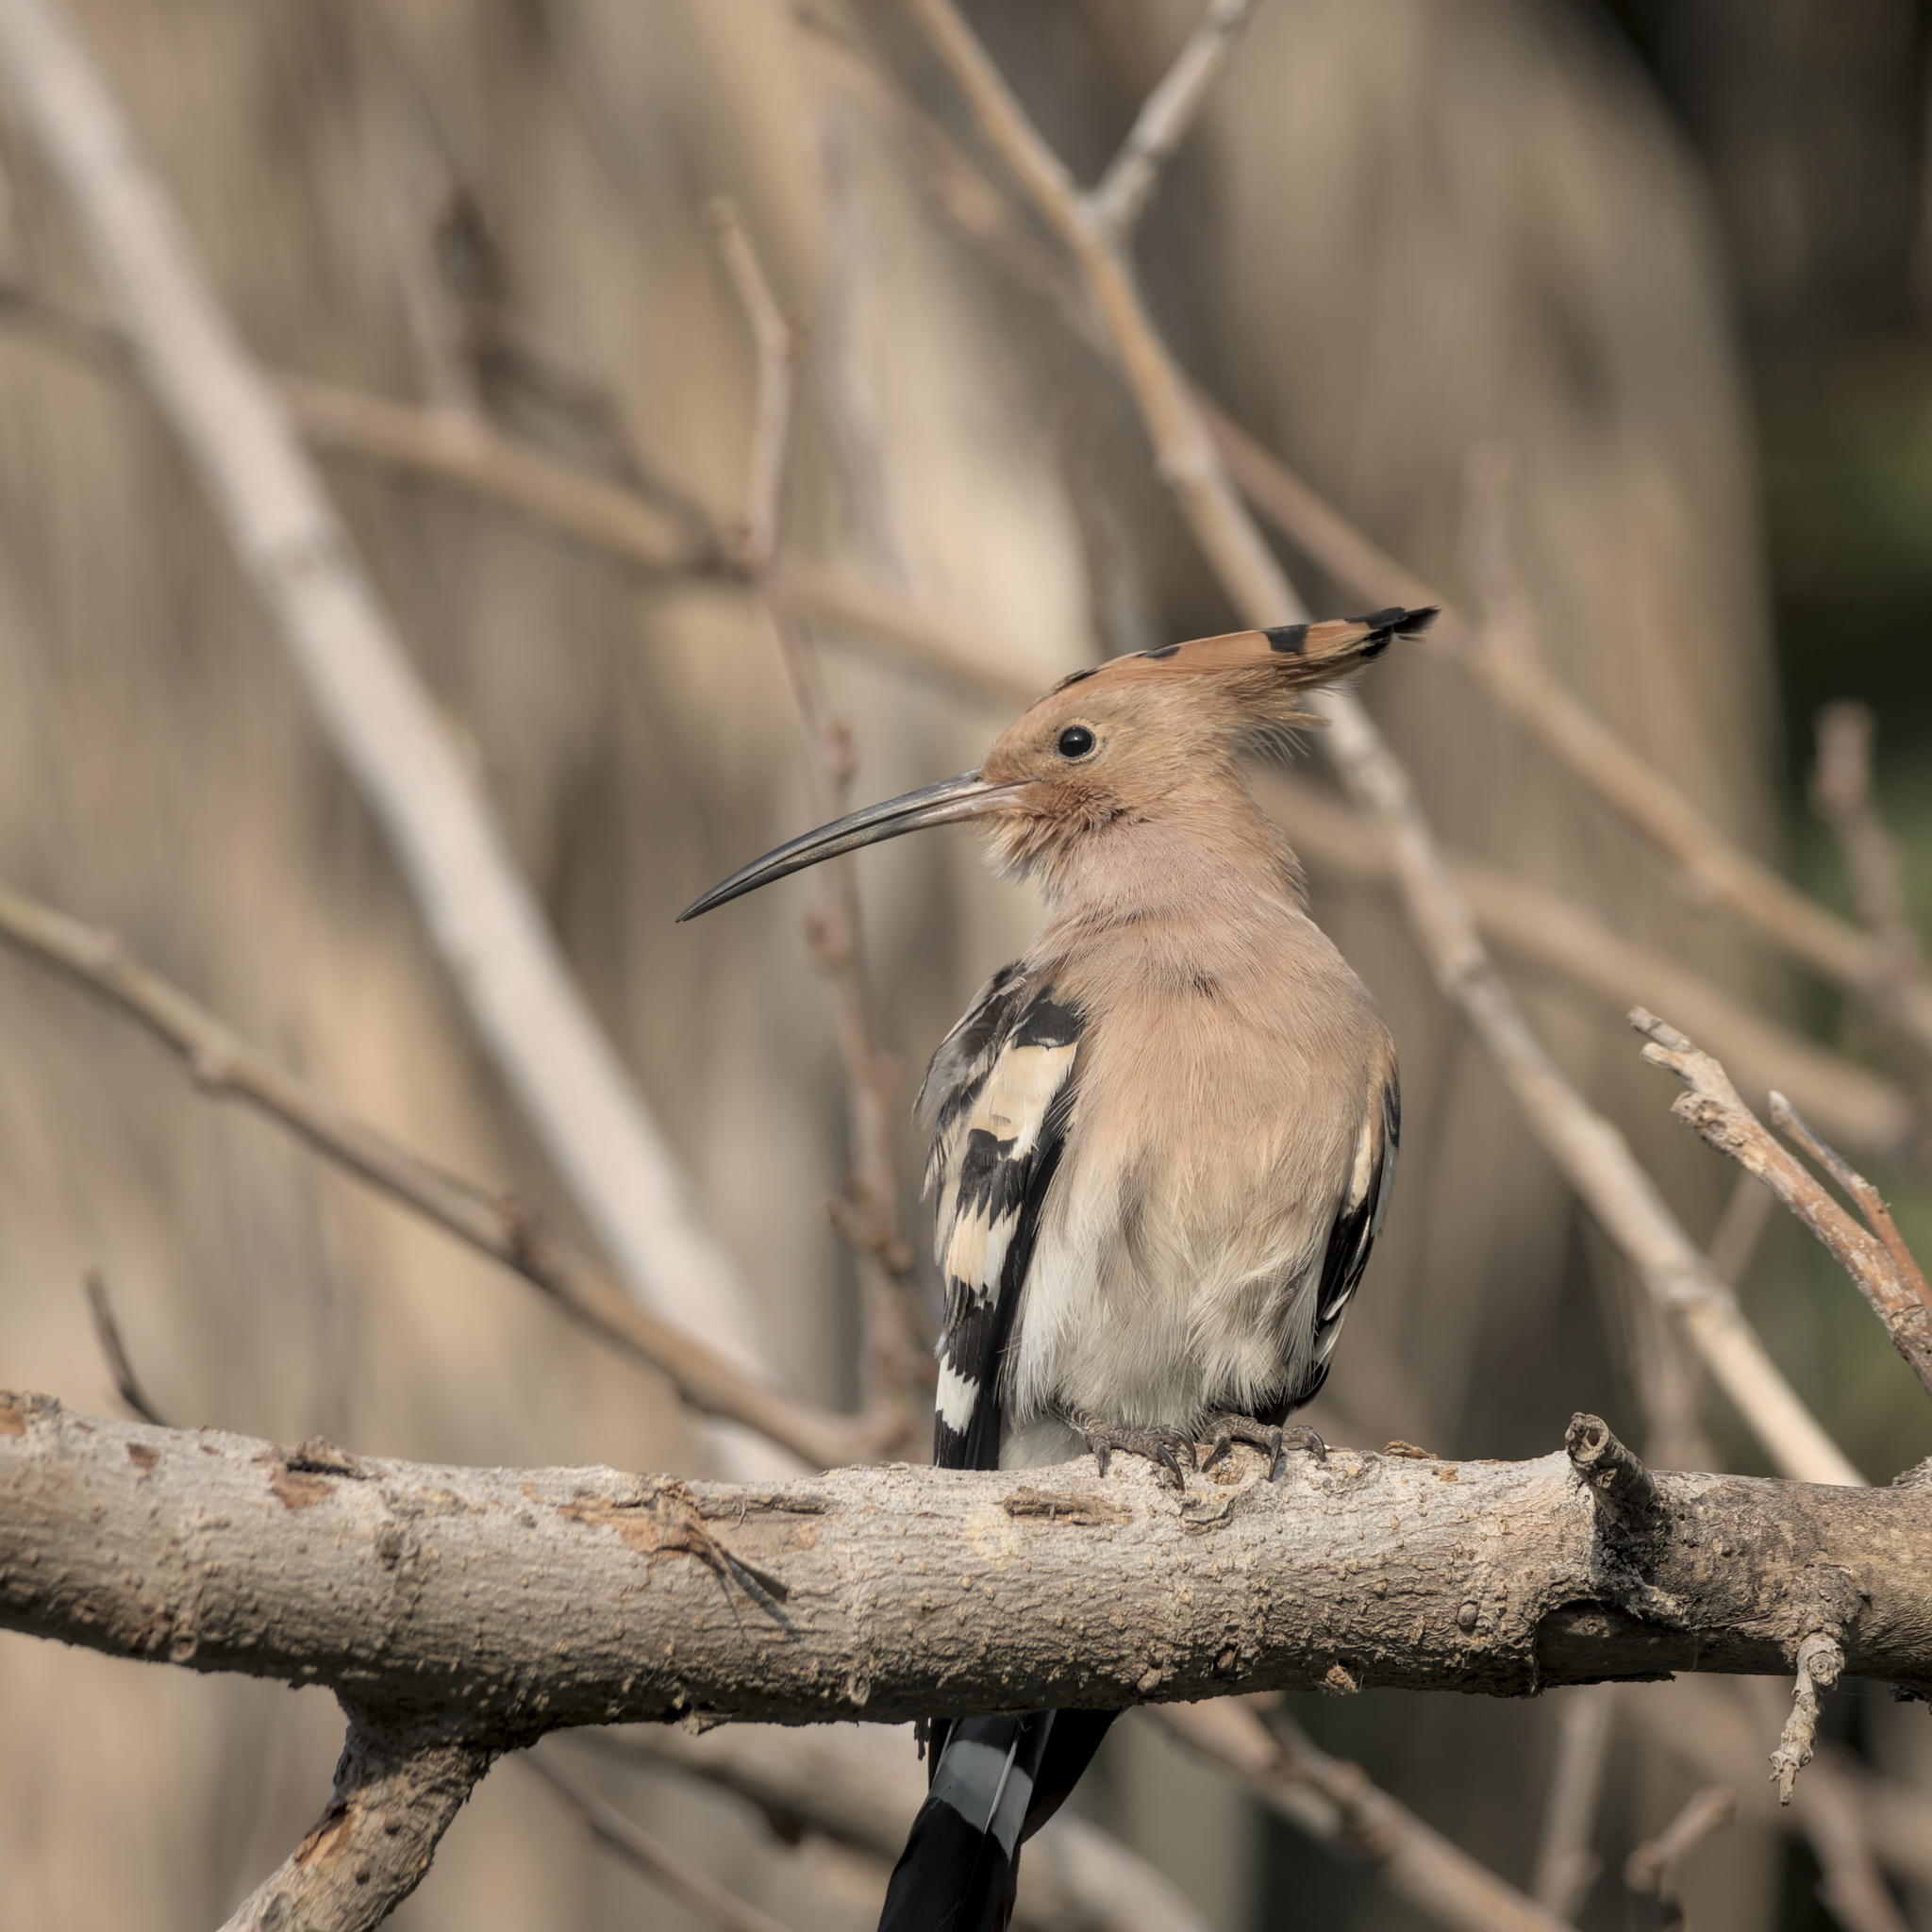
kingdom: Animalia
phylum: Chordata
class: Aves
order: Bucerotiformes
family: Upupidae
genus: Upupa
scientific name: Upupa epops
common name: Eurasian hoopoe
